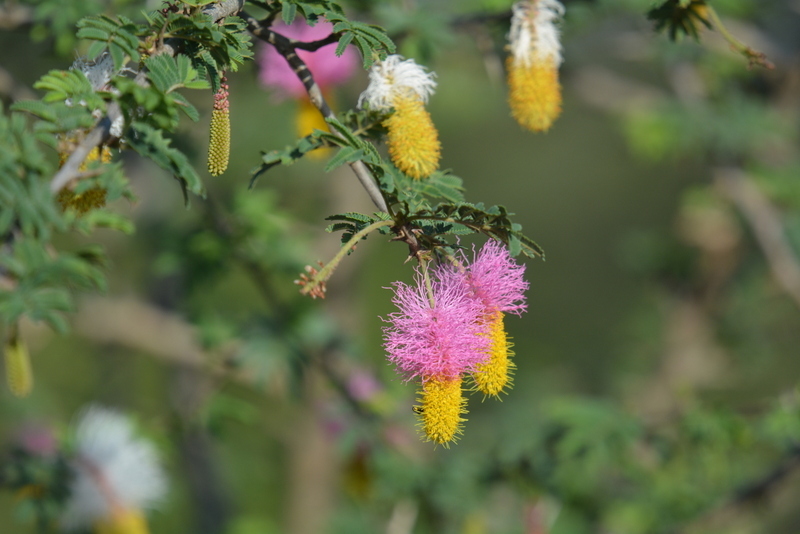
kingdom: Plantae
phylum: Tracheophyta
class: Magnoliopsida
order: Fabales
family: Fabaceae
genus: Dichrostachys
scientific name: Dichrostachys cinerea
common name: Sicklebush
